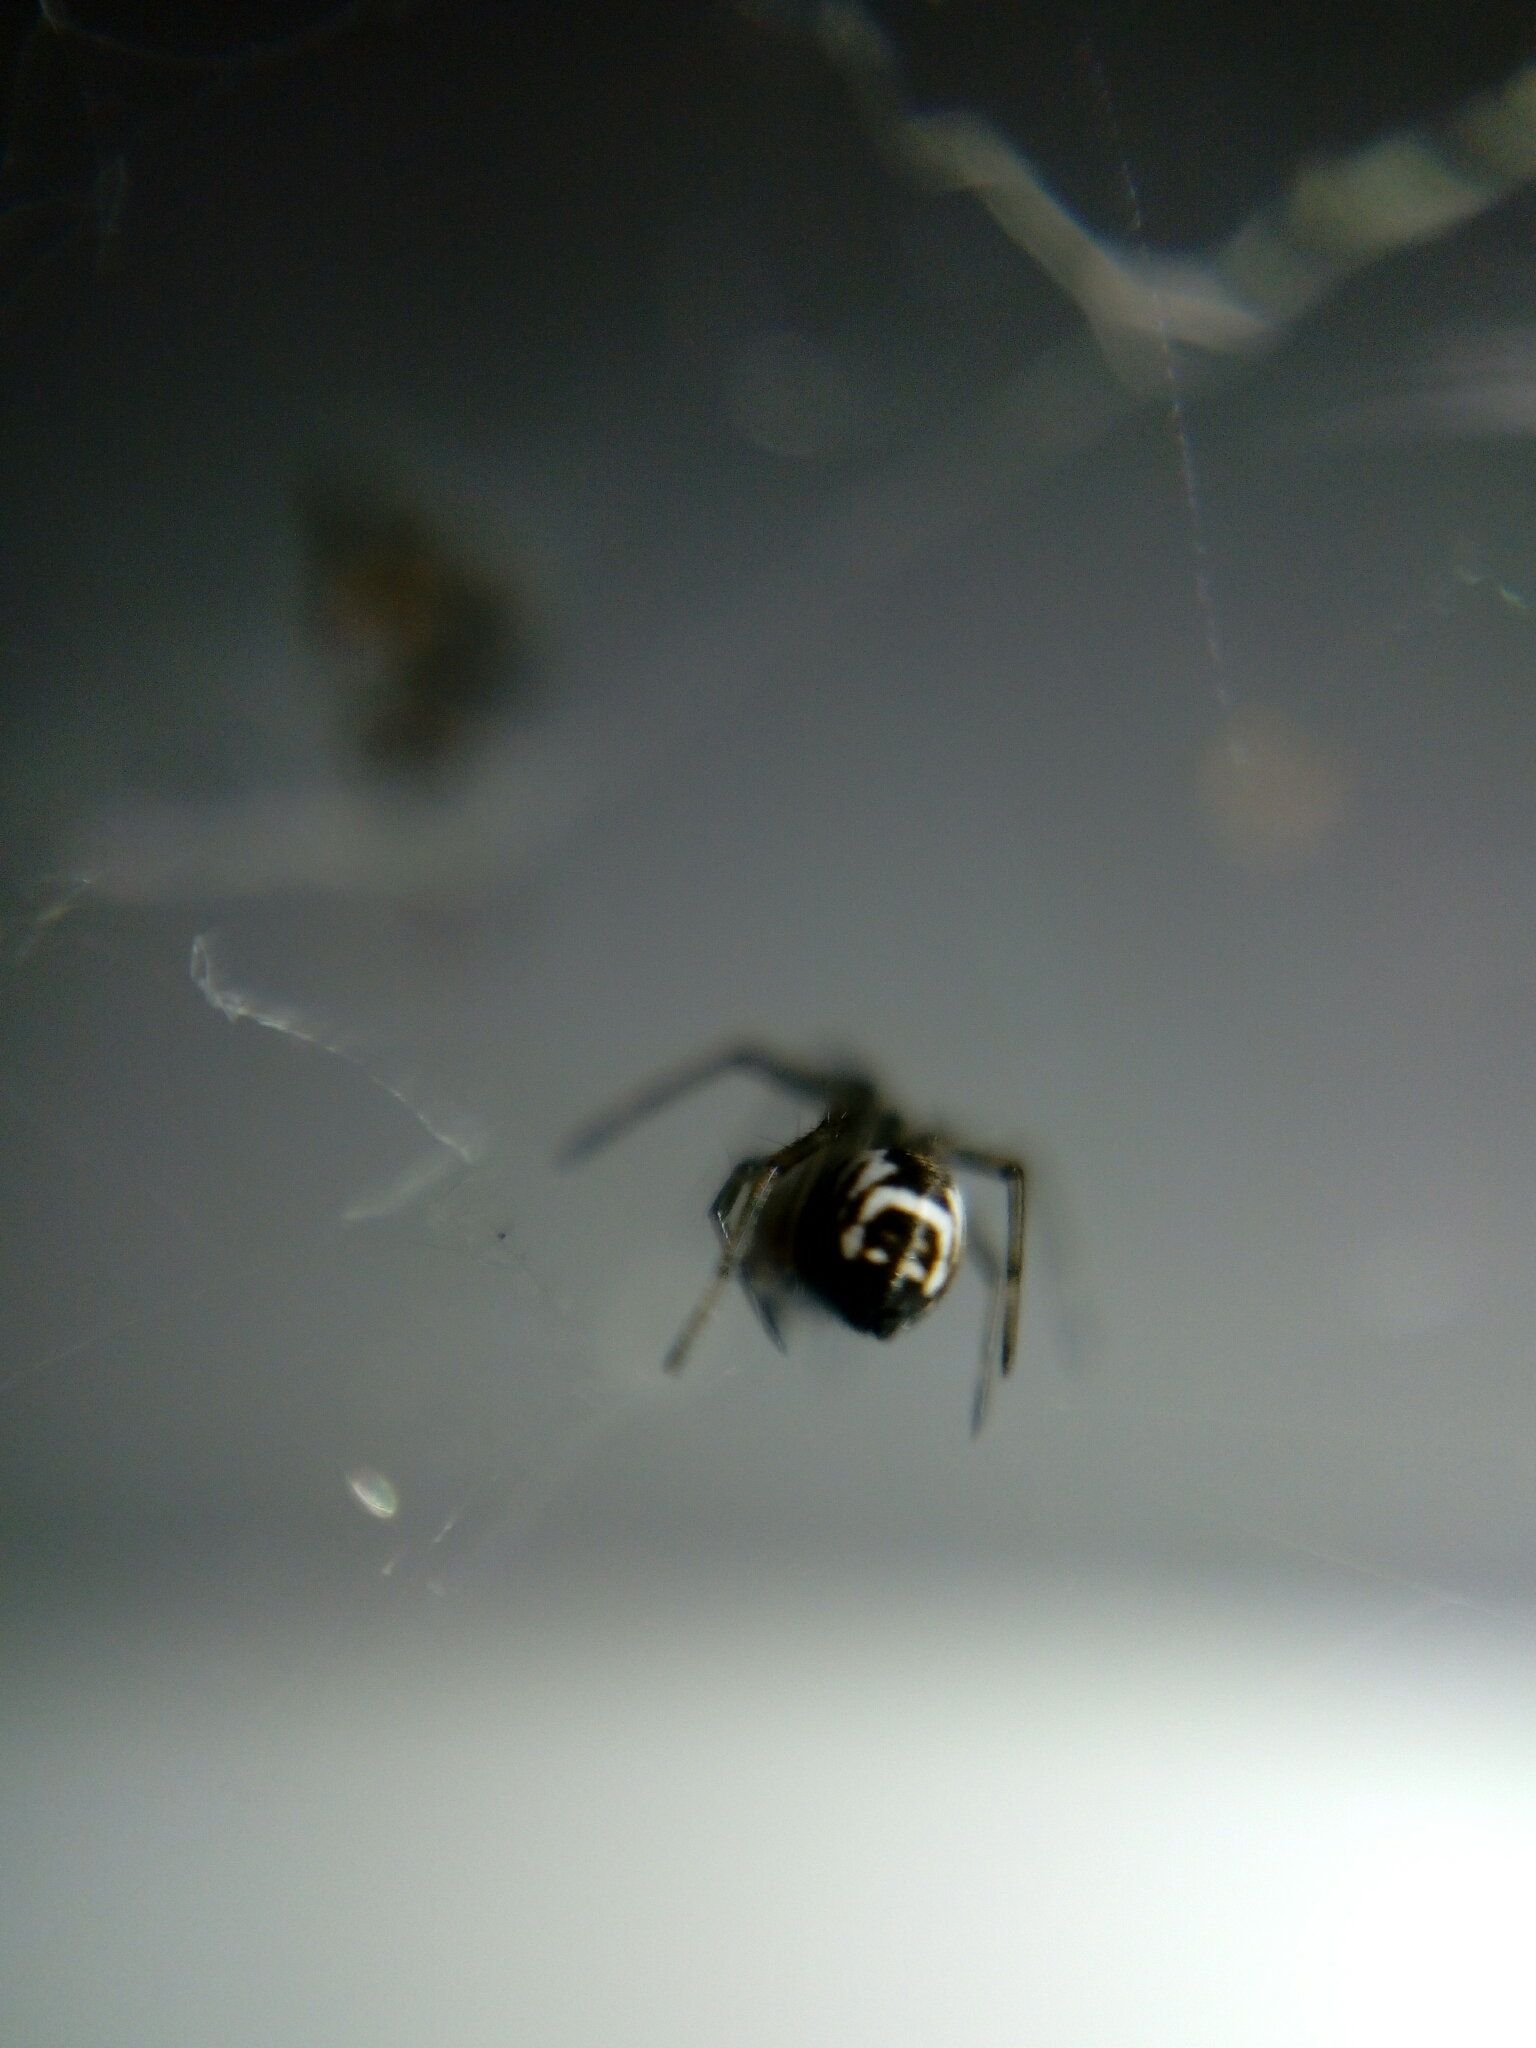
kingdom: Animalia
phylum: Arthropoda
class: Arachnida
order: Araneae
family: Linyphiidae
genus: Frontinellina
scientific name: Frontinellina frutetorum
